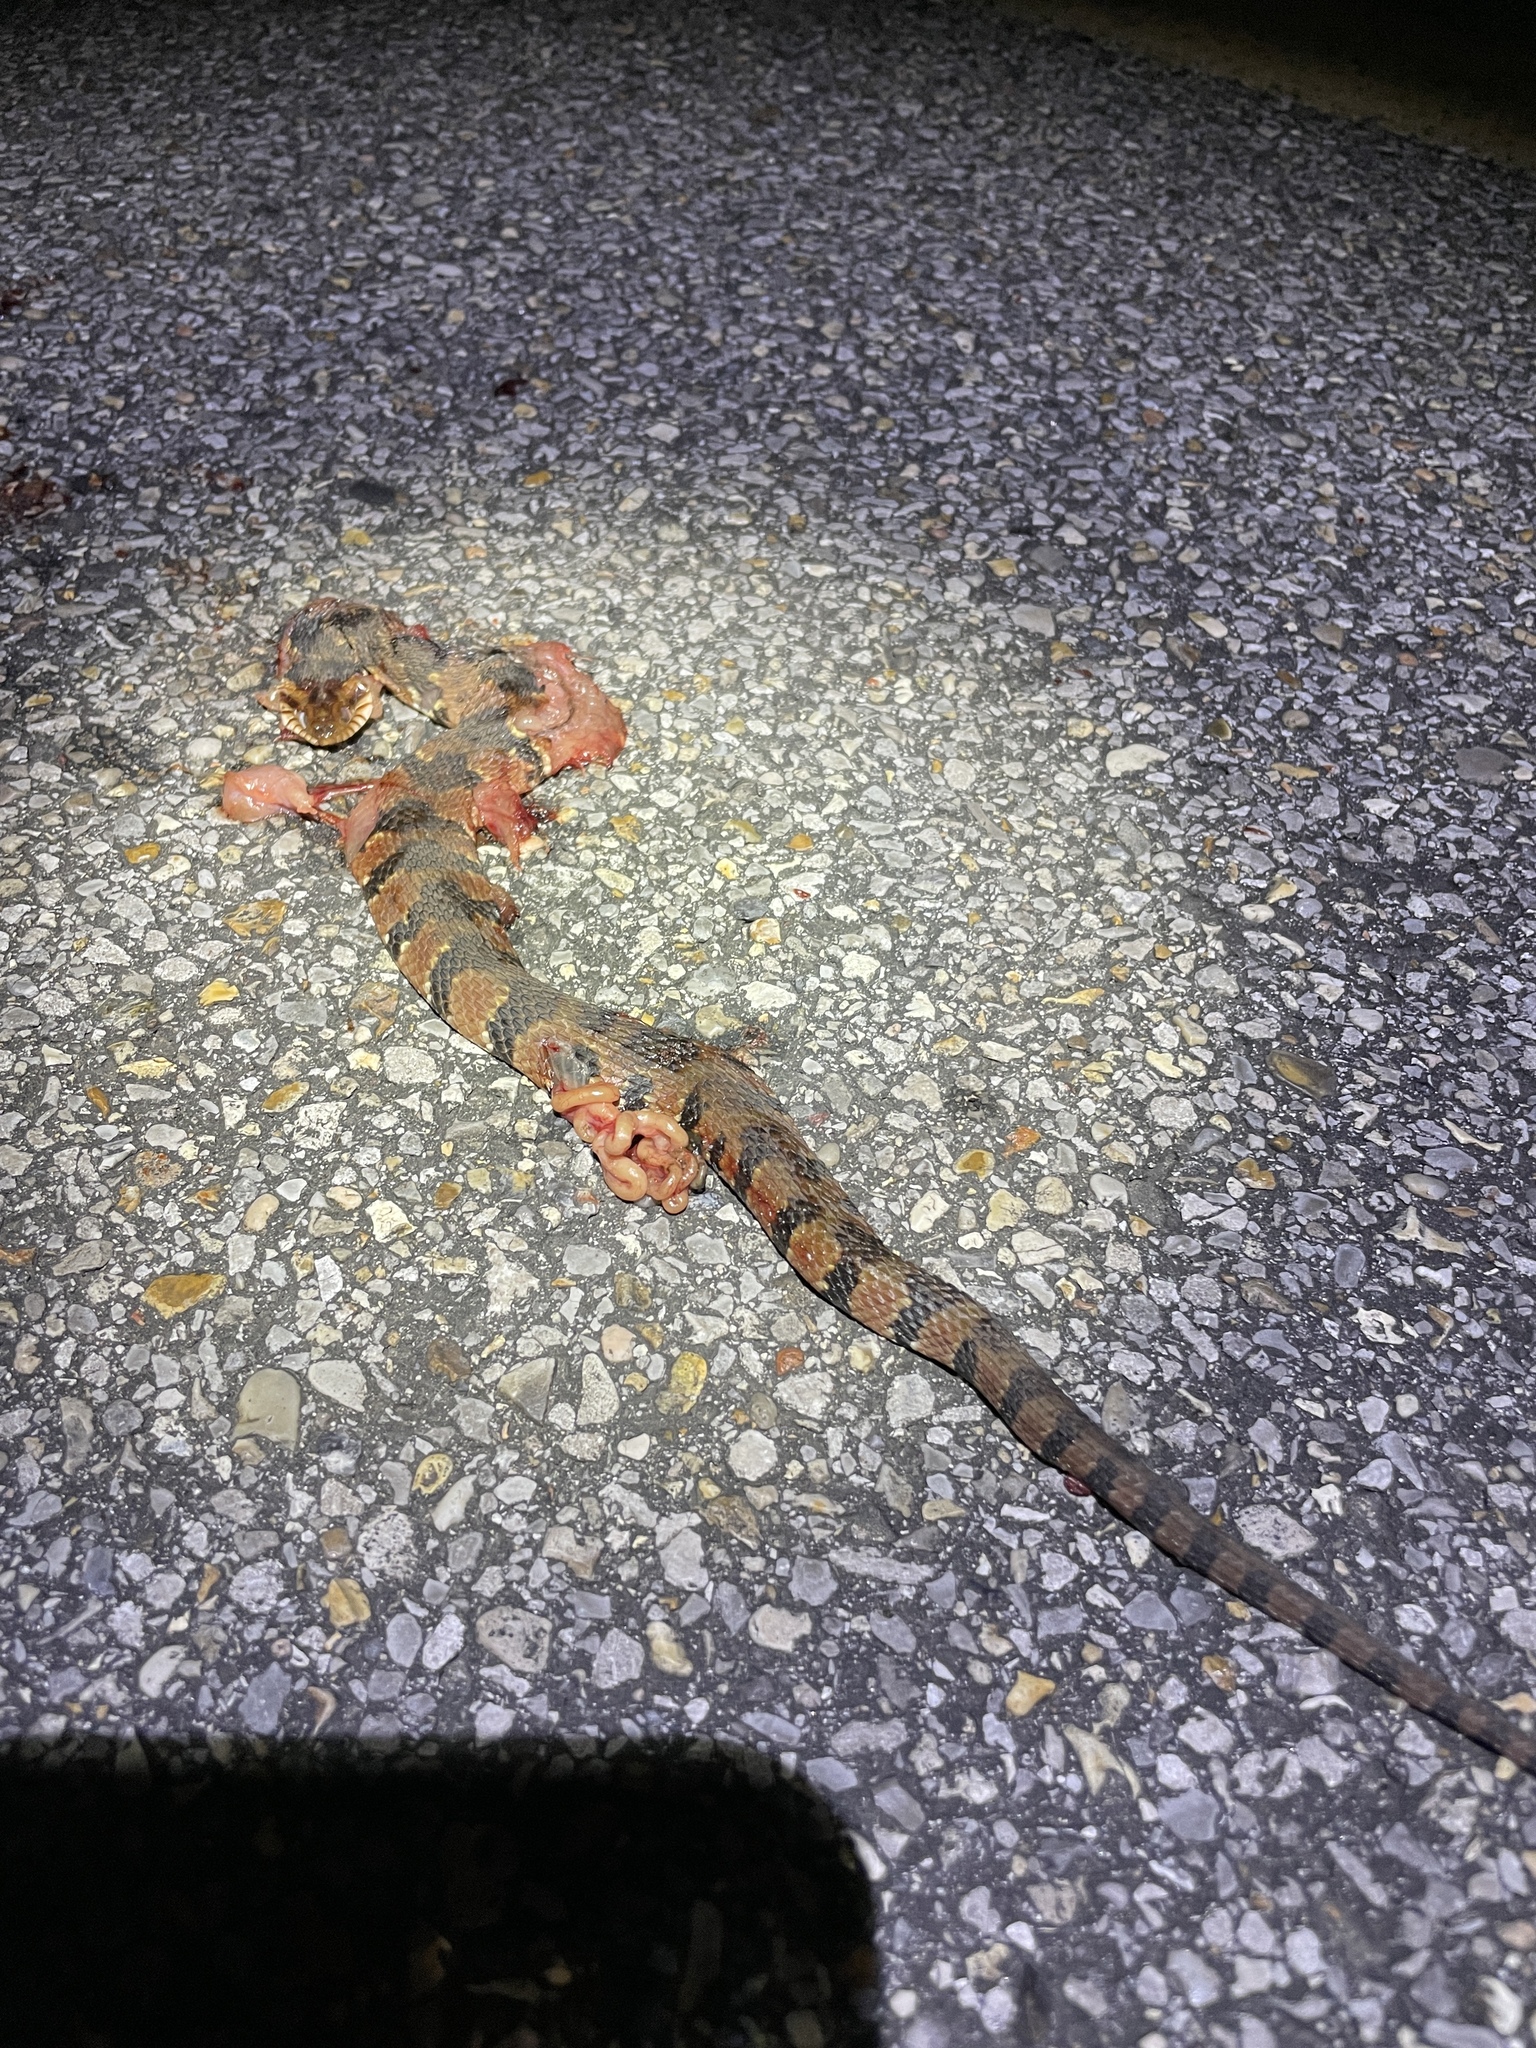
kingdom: Animalia
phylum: Chordata
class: Squamata
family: Colubridae
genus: Nerodia
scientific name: Nerodia fasciata
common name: Southern water snake
